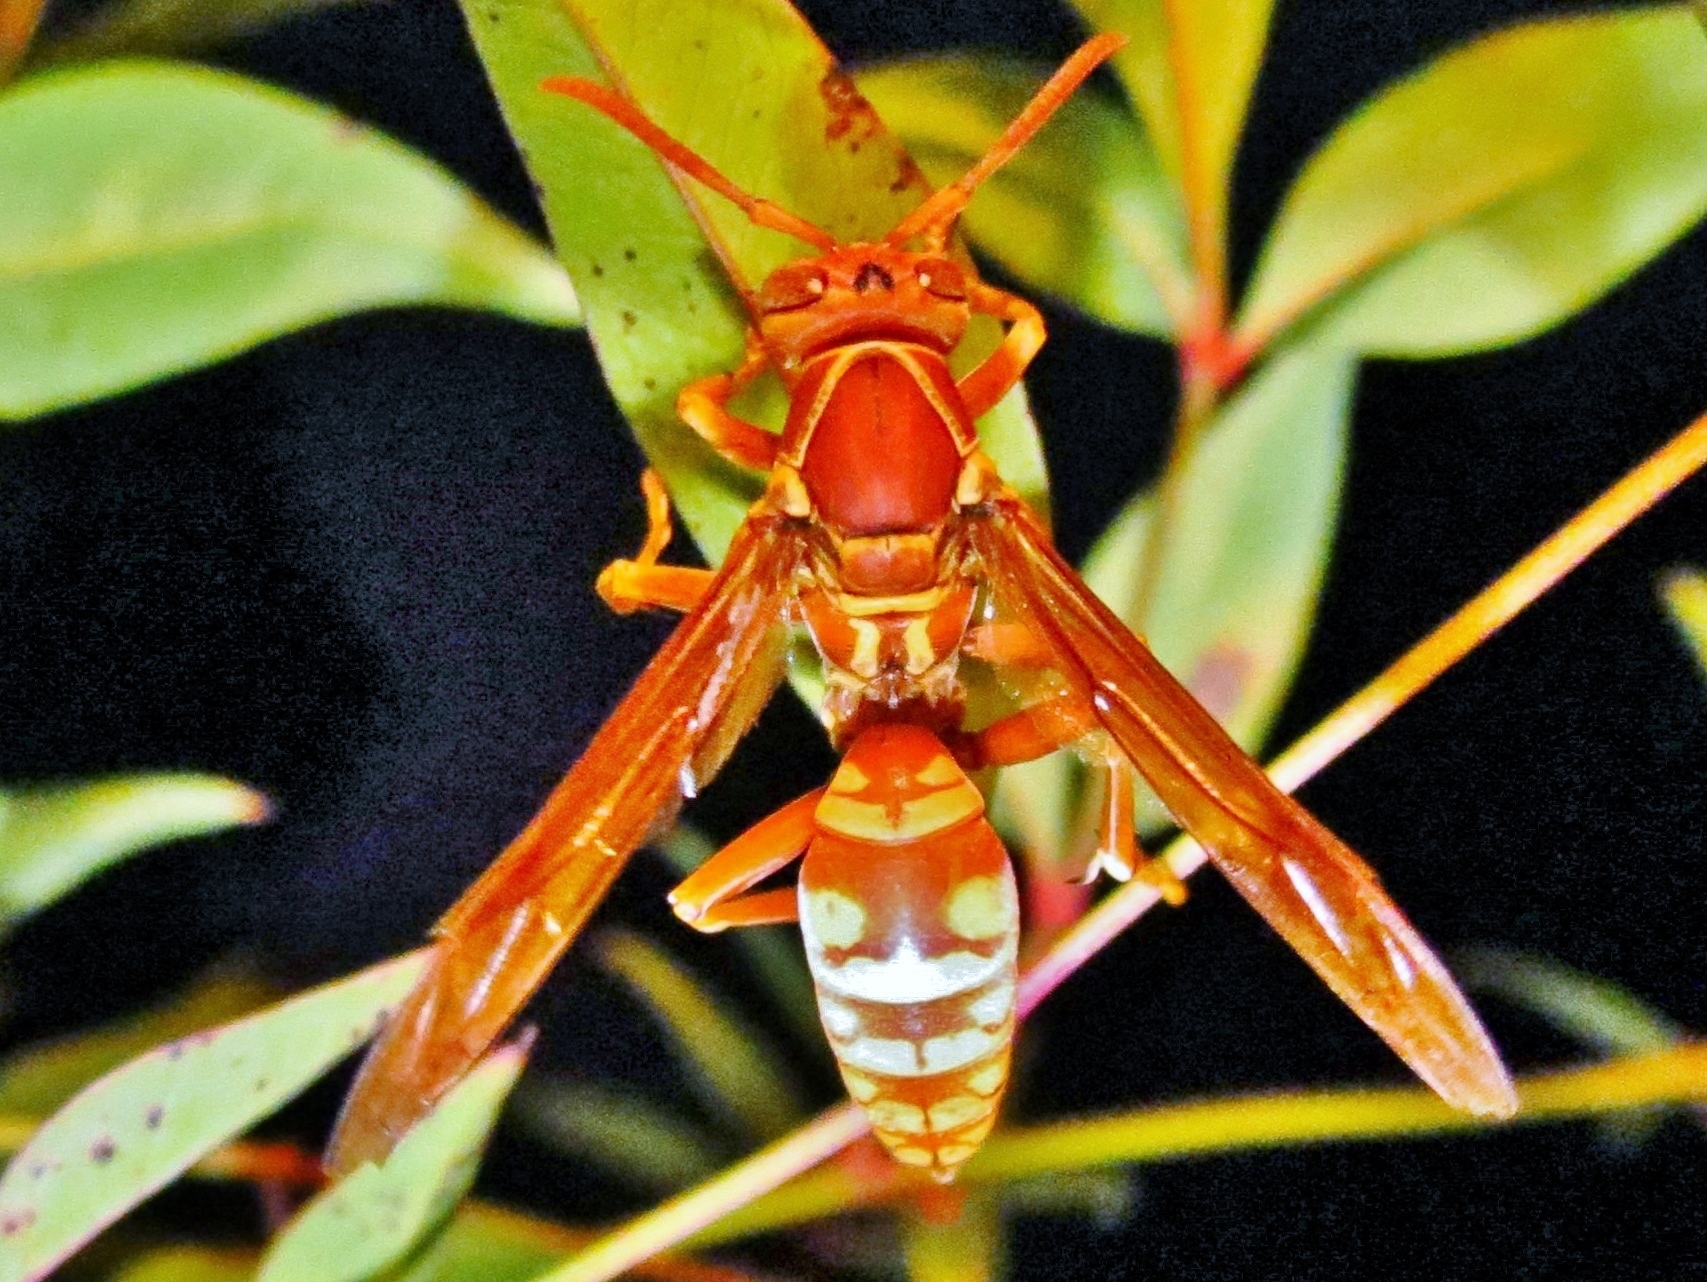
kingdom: Animalia
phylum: Arthropoda
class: Insecta
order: Hymenoptera
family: Eumenidae
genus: Polistes
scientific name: Polistes apachus
